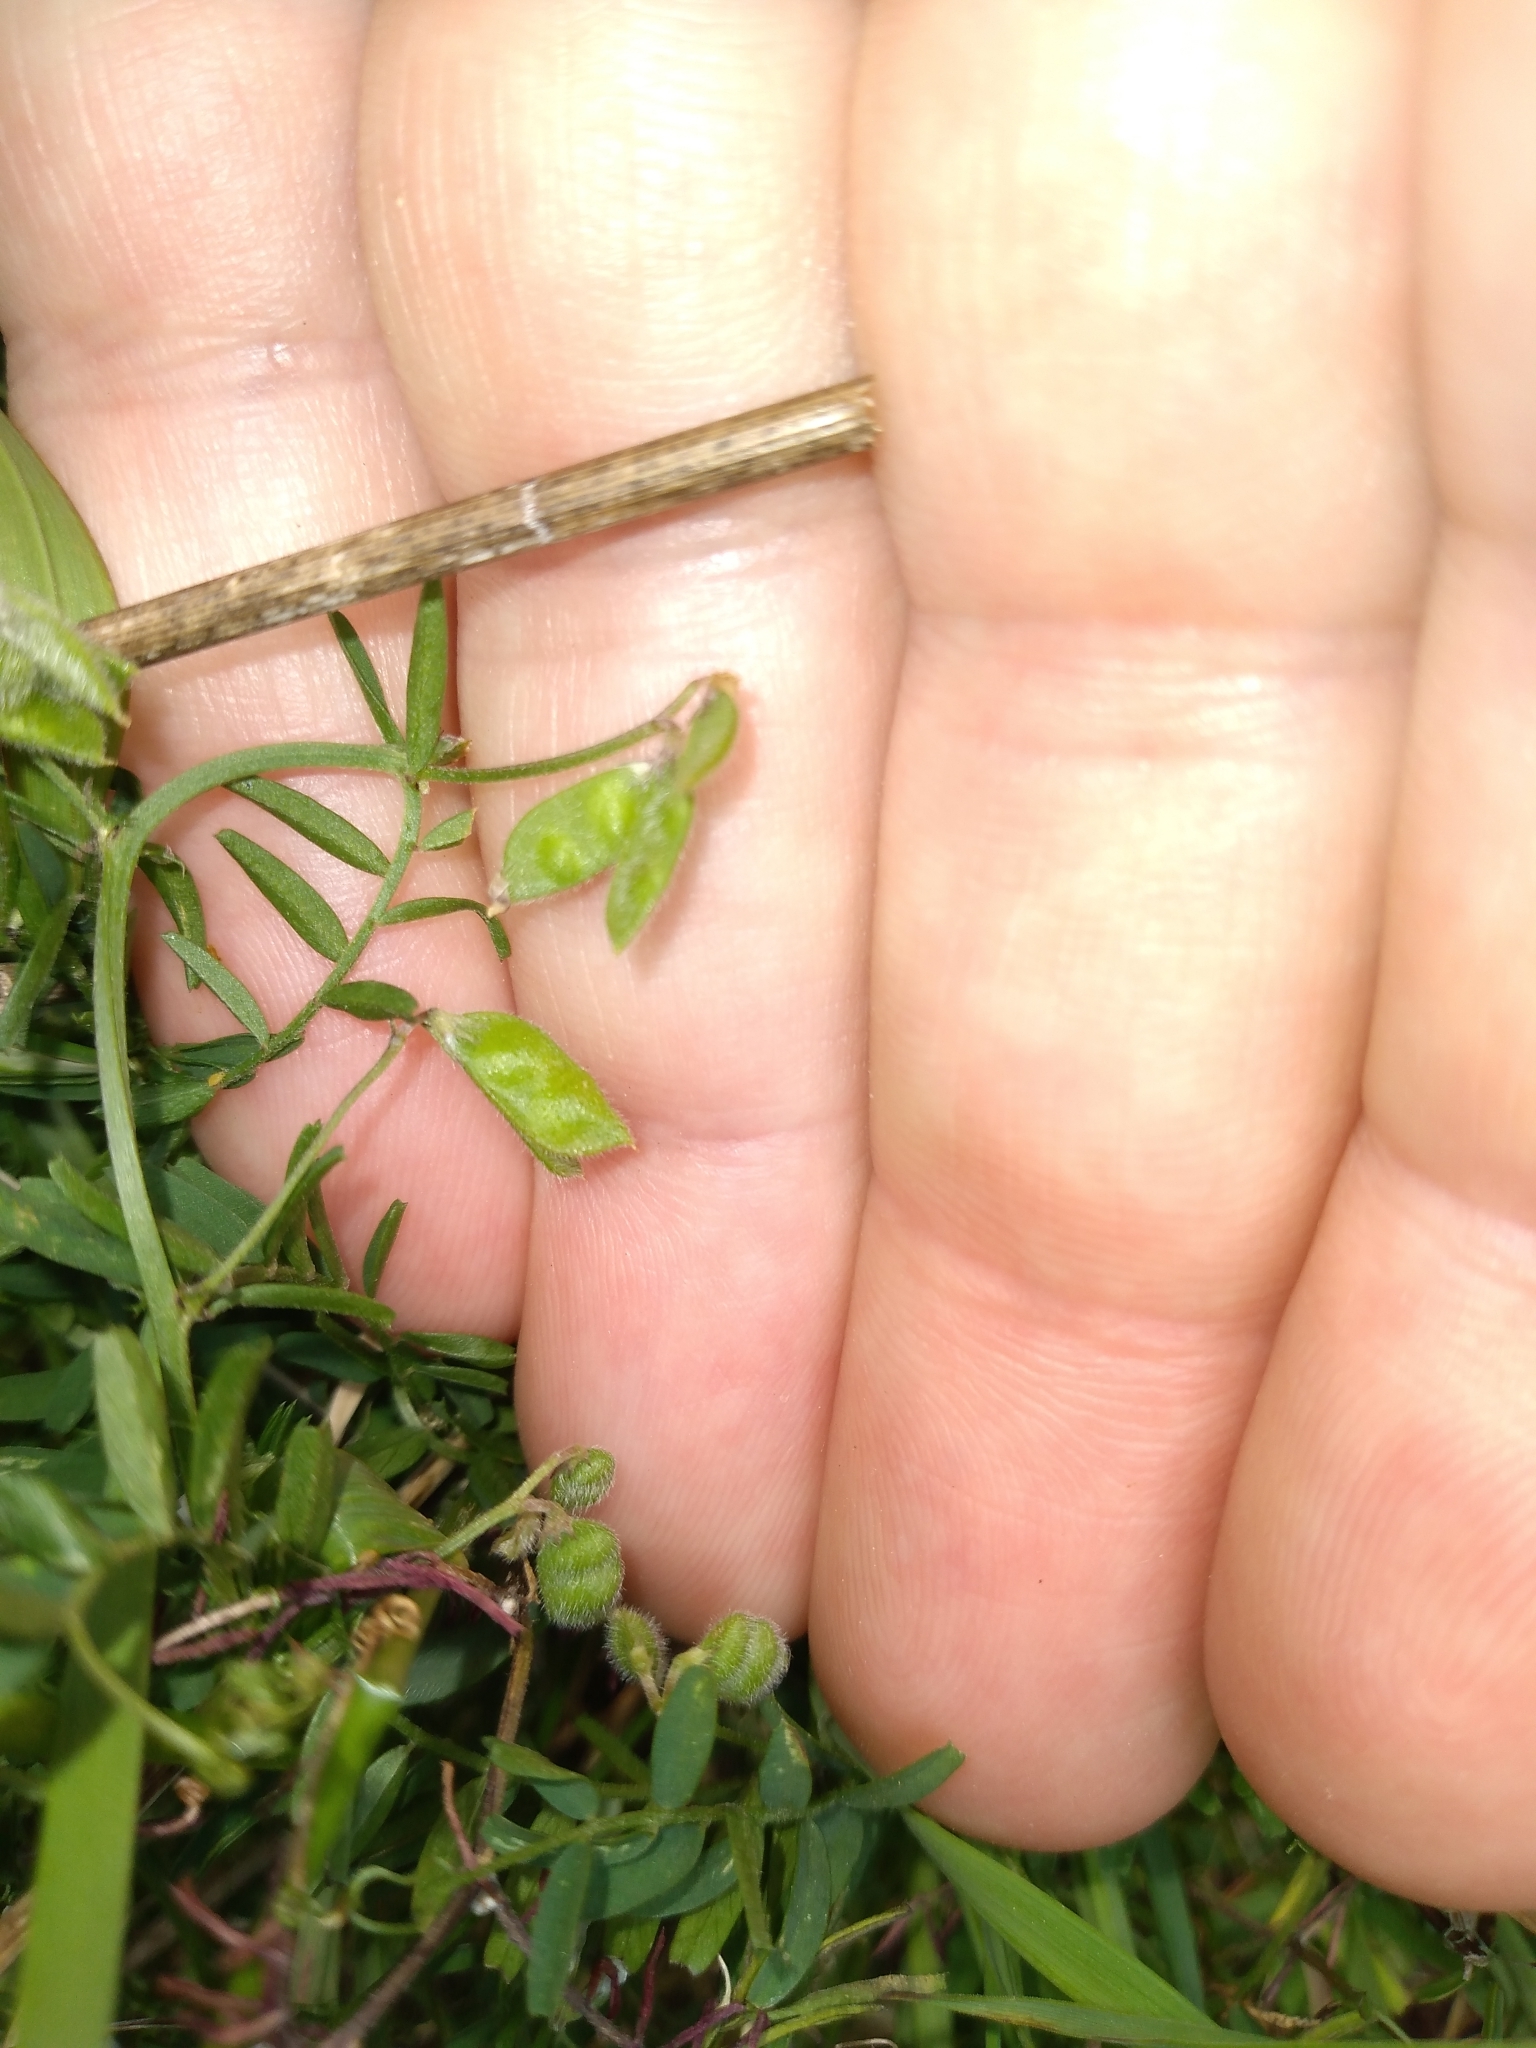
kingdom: Plantae
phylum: Tracheophyta
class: Magnoliopsida
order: Fabales
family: Fabaceae
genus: Vicia
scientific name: Vicia hirsuta
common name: Tiny vetch
